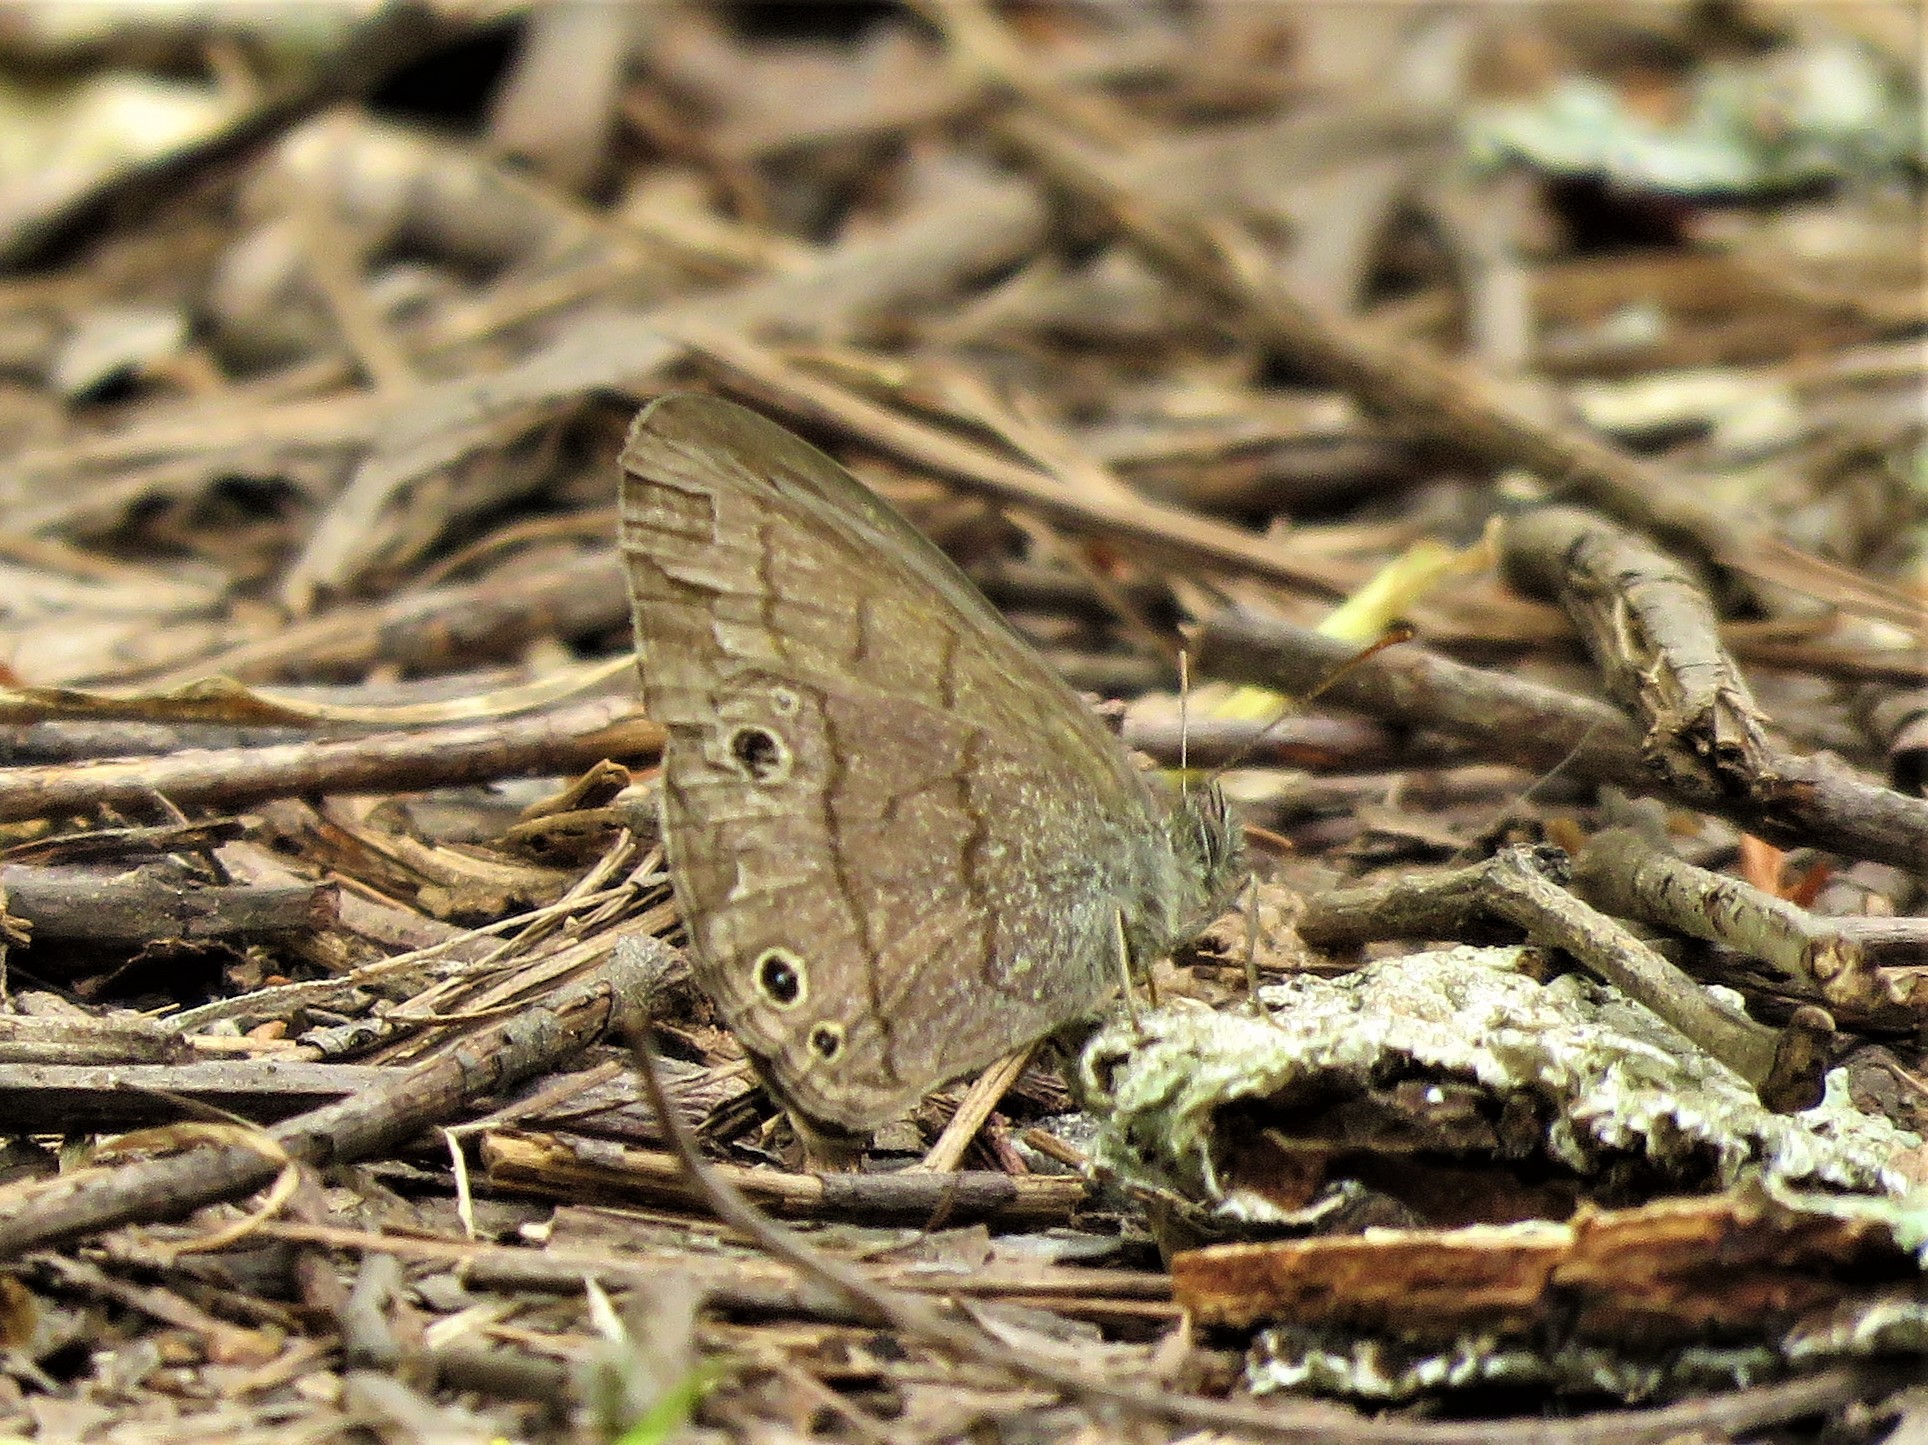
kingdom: Animalia
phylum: Arthropoda
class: Insecta
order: Lepidoptera
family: Nymphalidae
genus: Hermeuptychia
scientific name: Hermeuptychia hermes
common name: Hermes satyr
